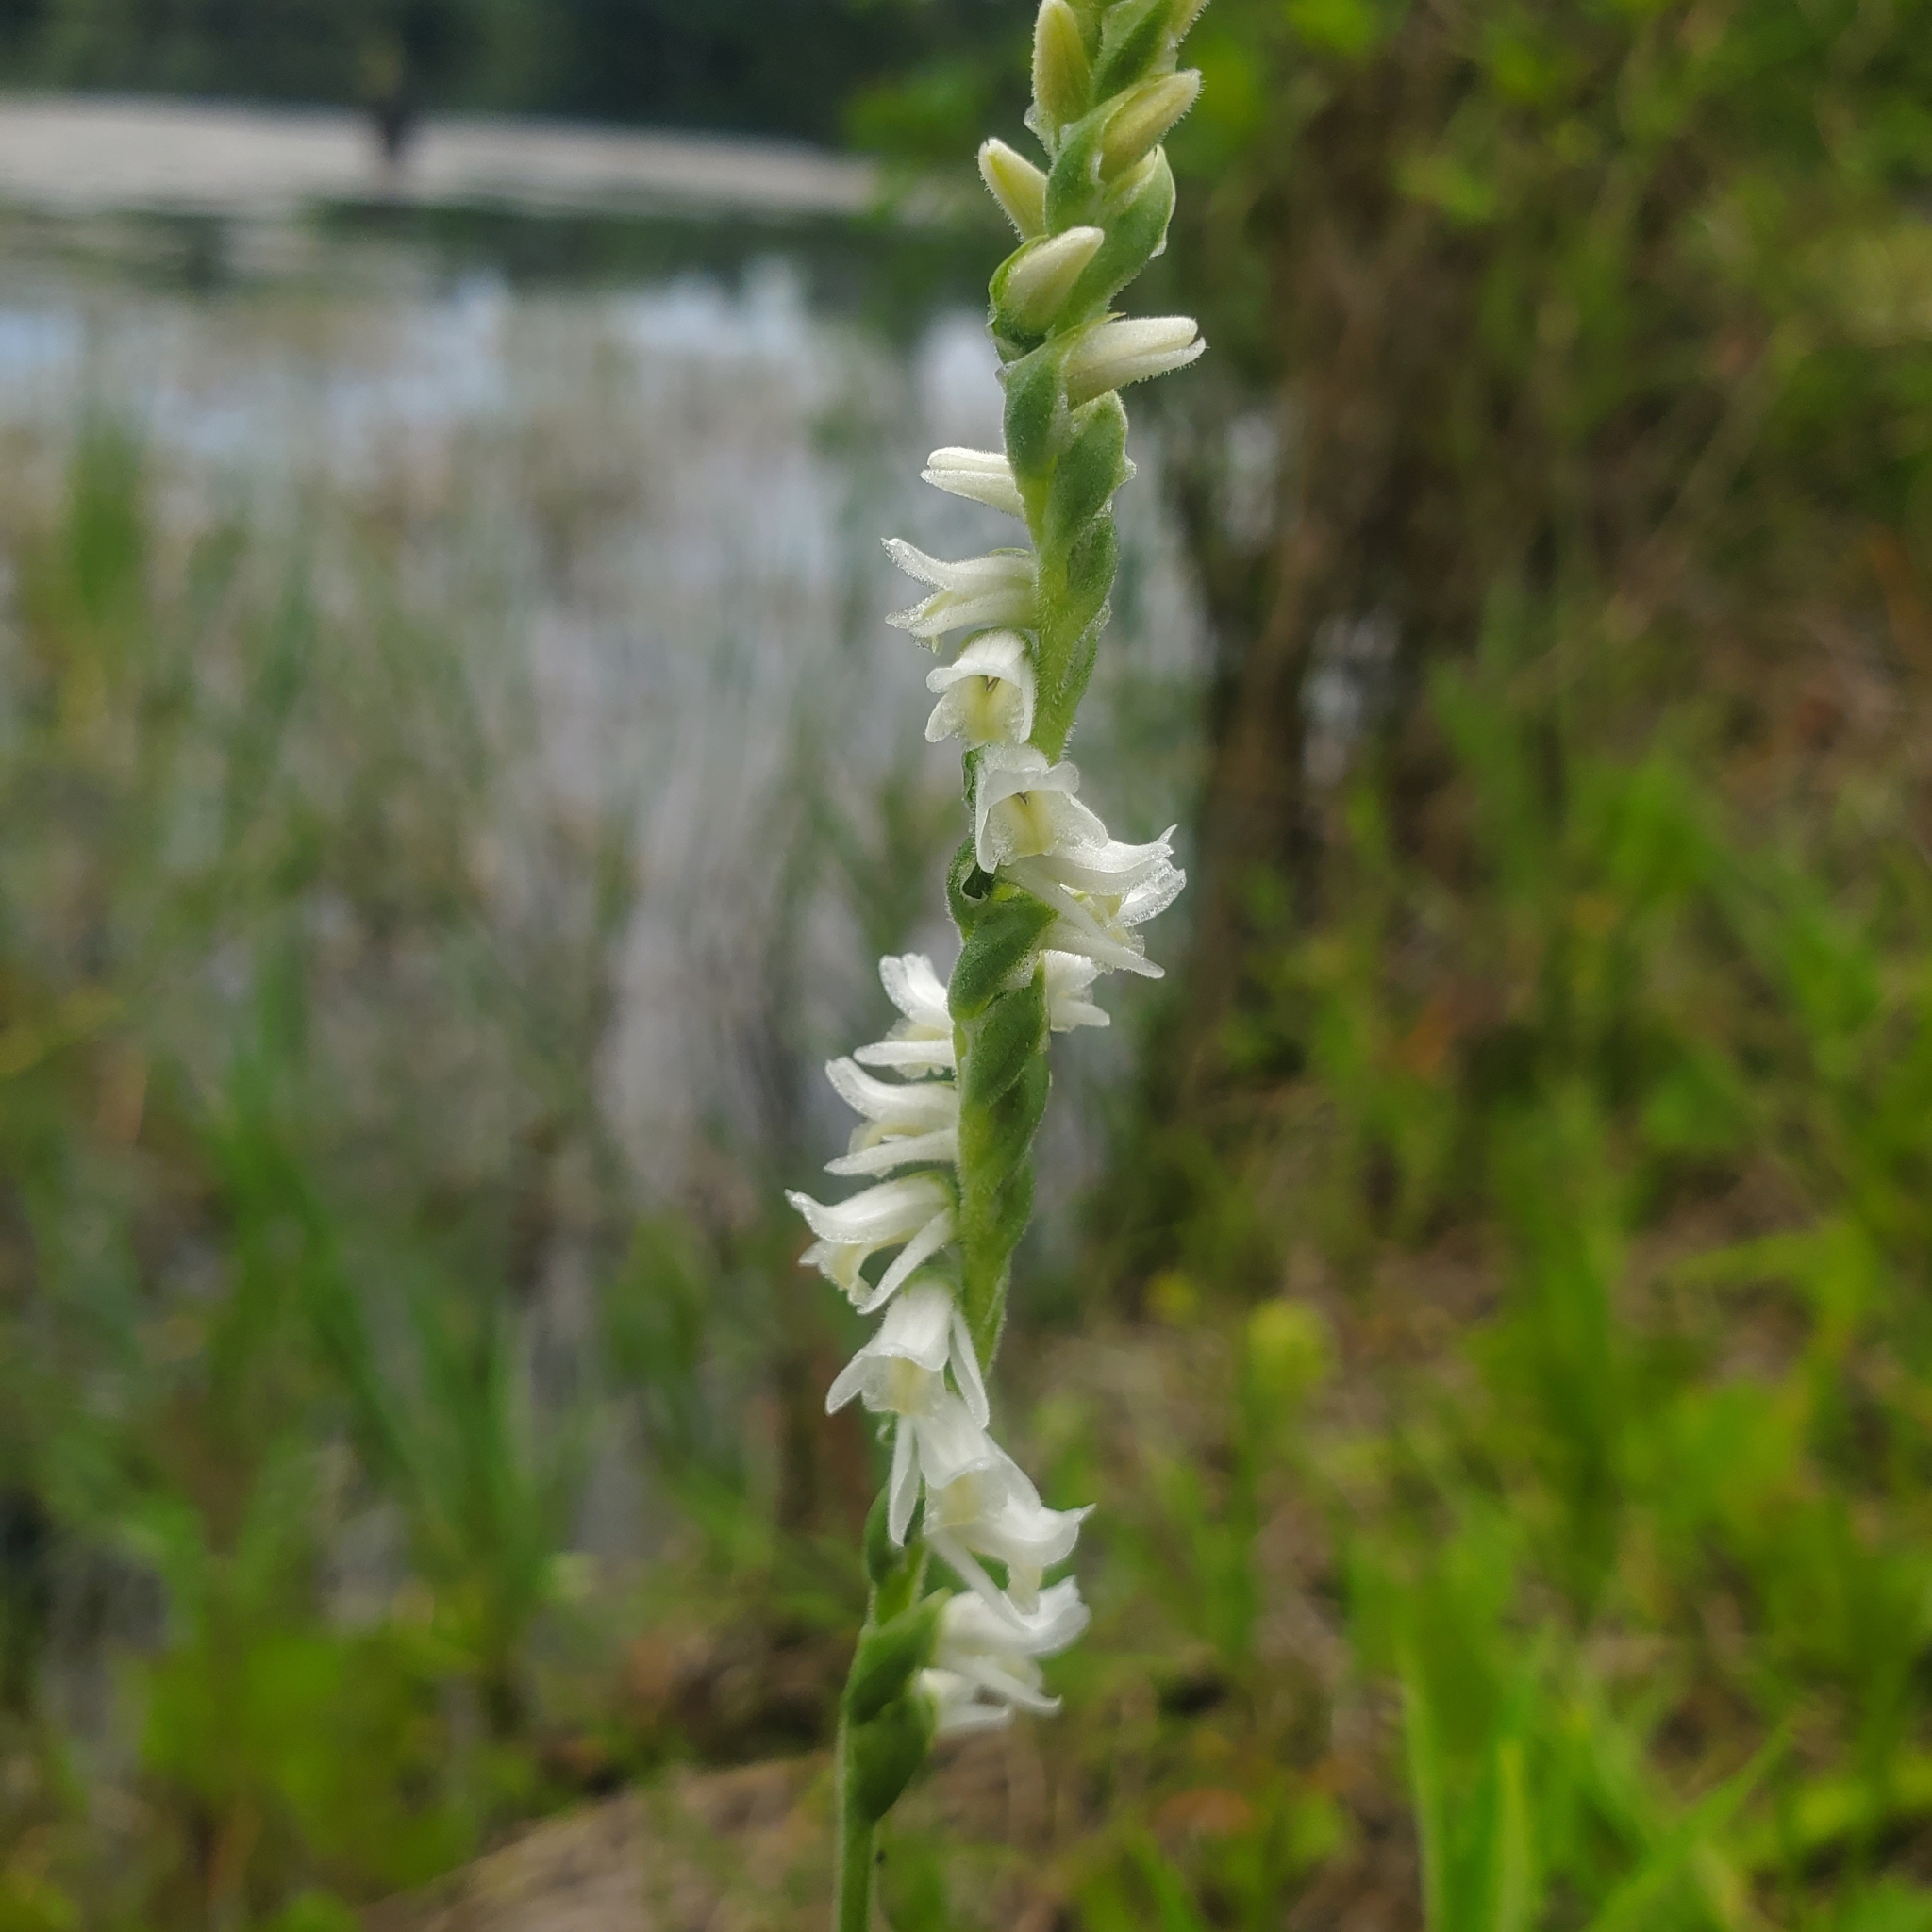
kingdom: Plantae
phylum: Tracheophyta
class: Liliopsida
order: Asparagales
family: Orchidaceae
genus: Spiranthes
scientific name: Spiranthes vernalis
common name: Spring ladies'-tresses
